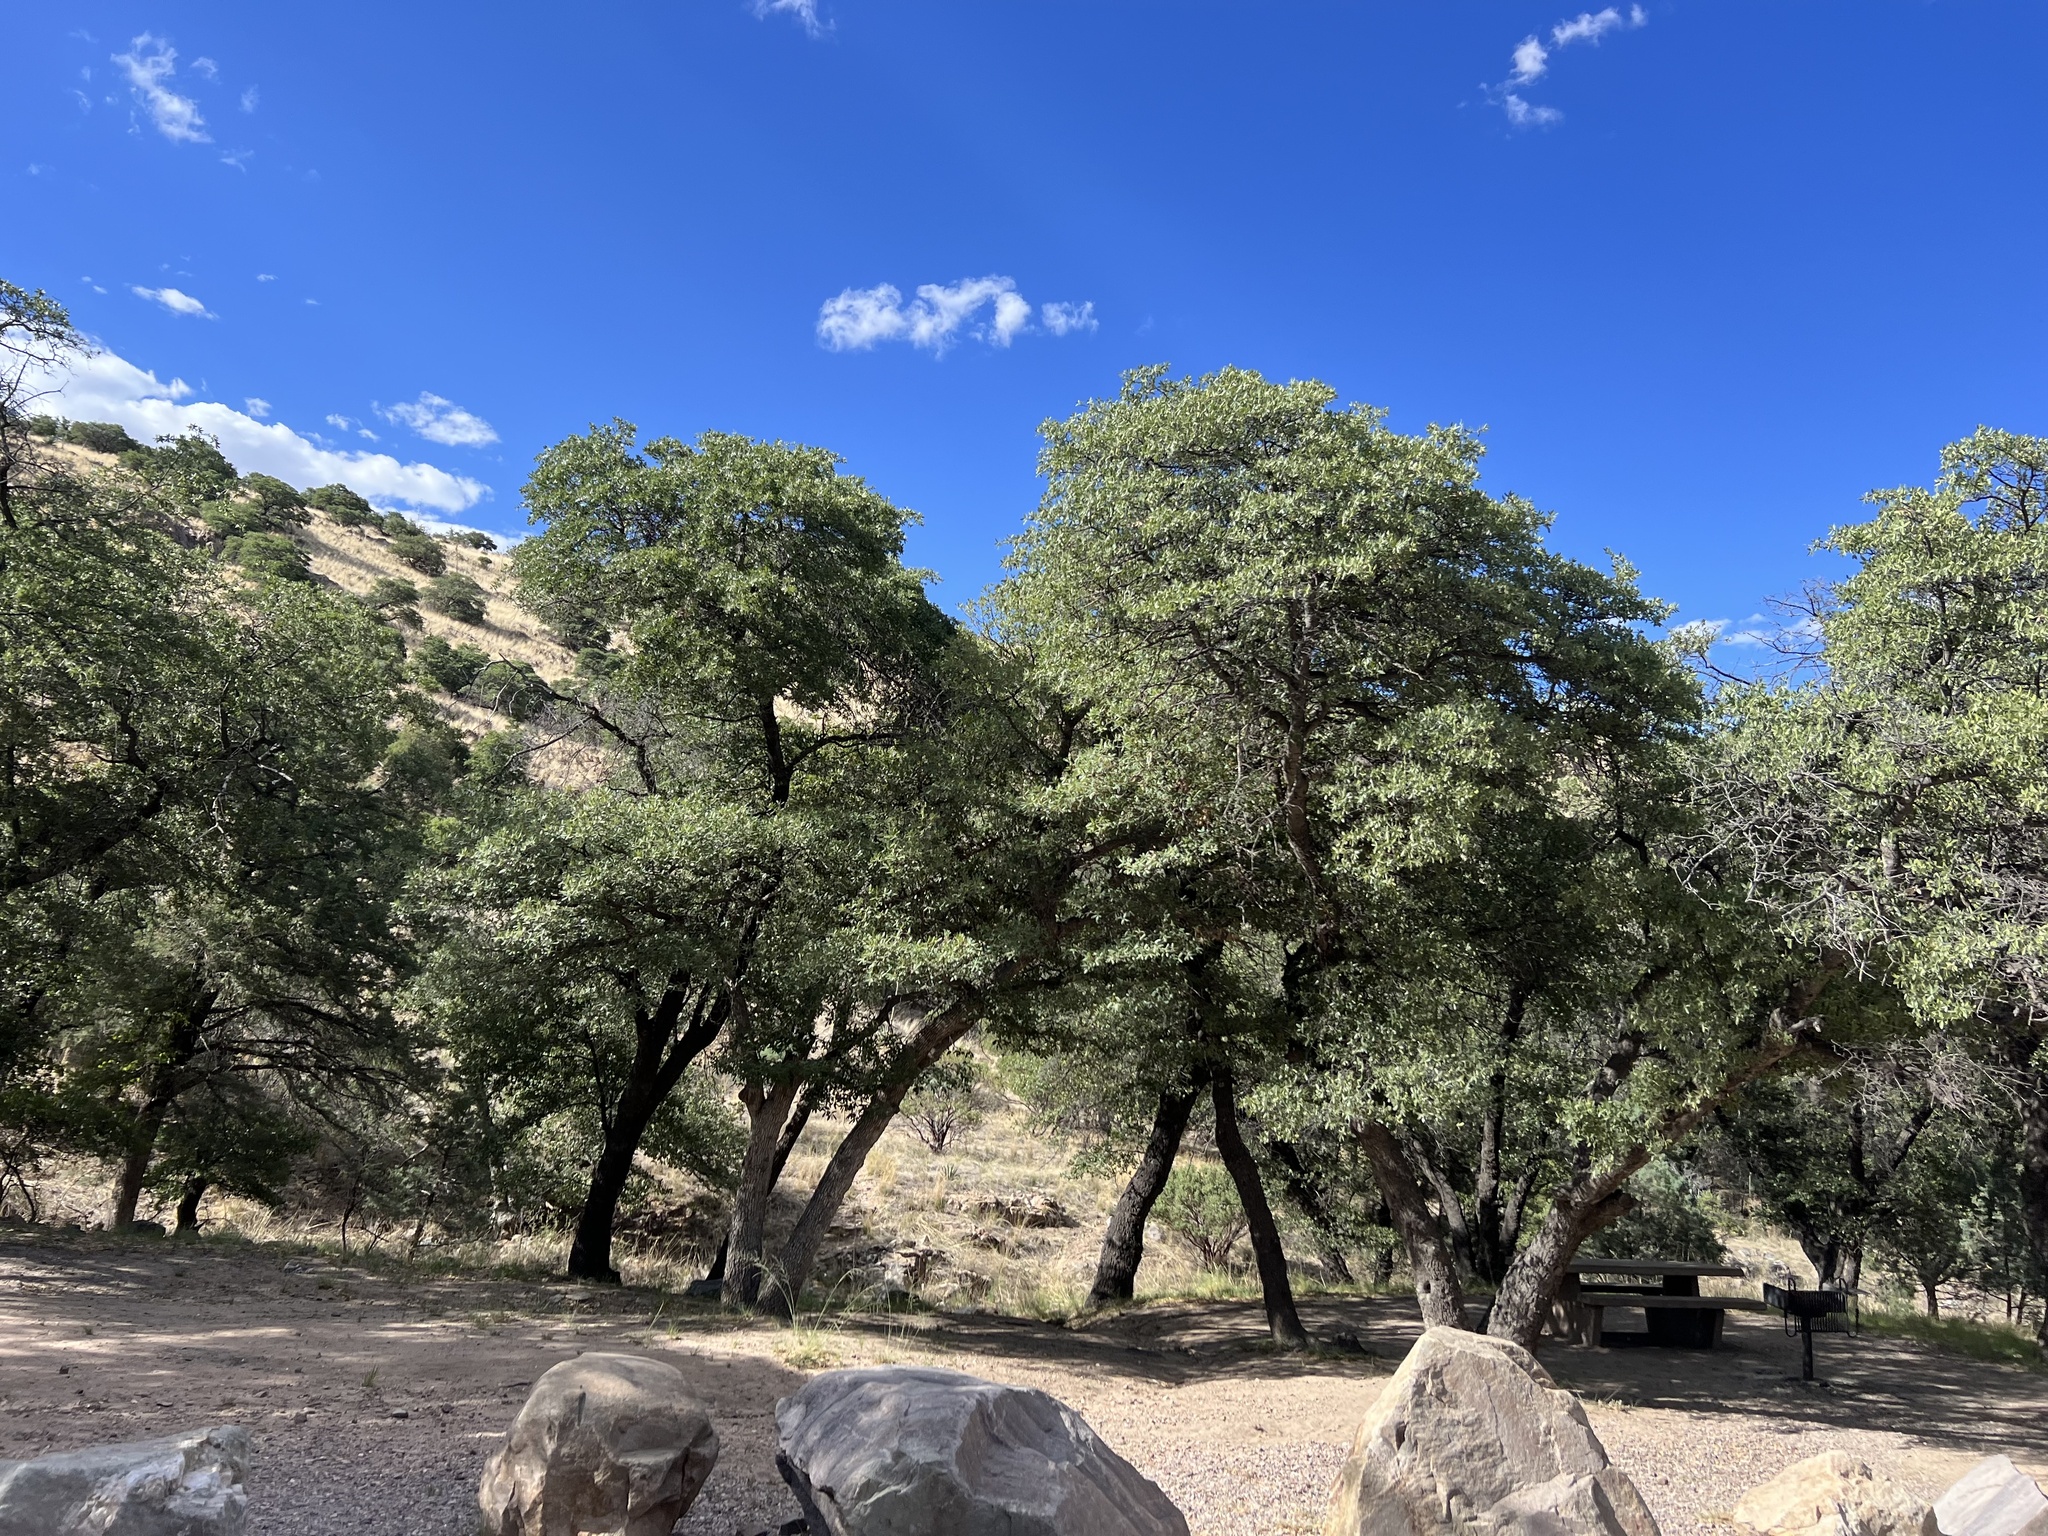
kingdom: Plantae
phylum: Tracheophyta
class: Magnoliopsida
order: Fagales
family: Fagaceae
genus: Quercus
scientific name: Quercus arizonica
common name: Arizona white oak
